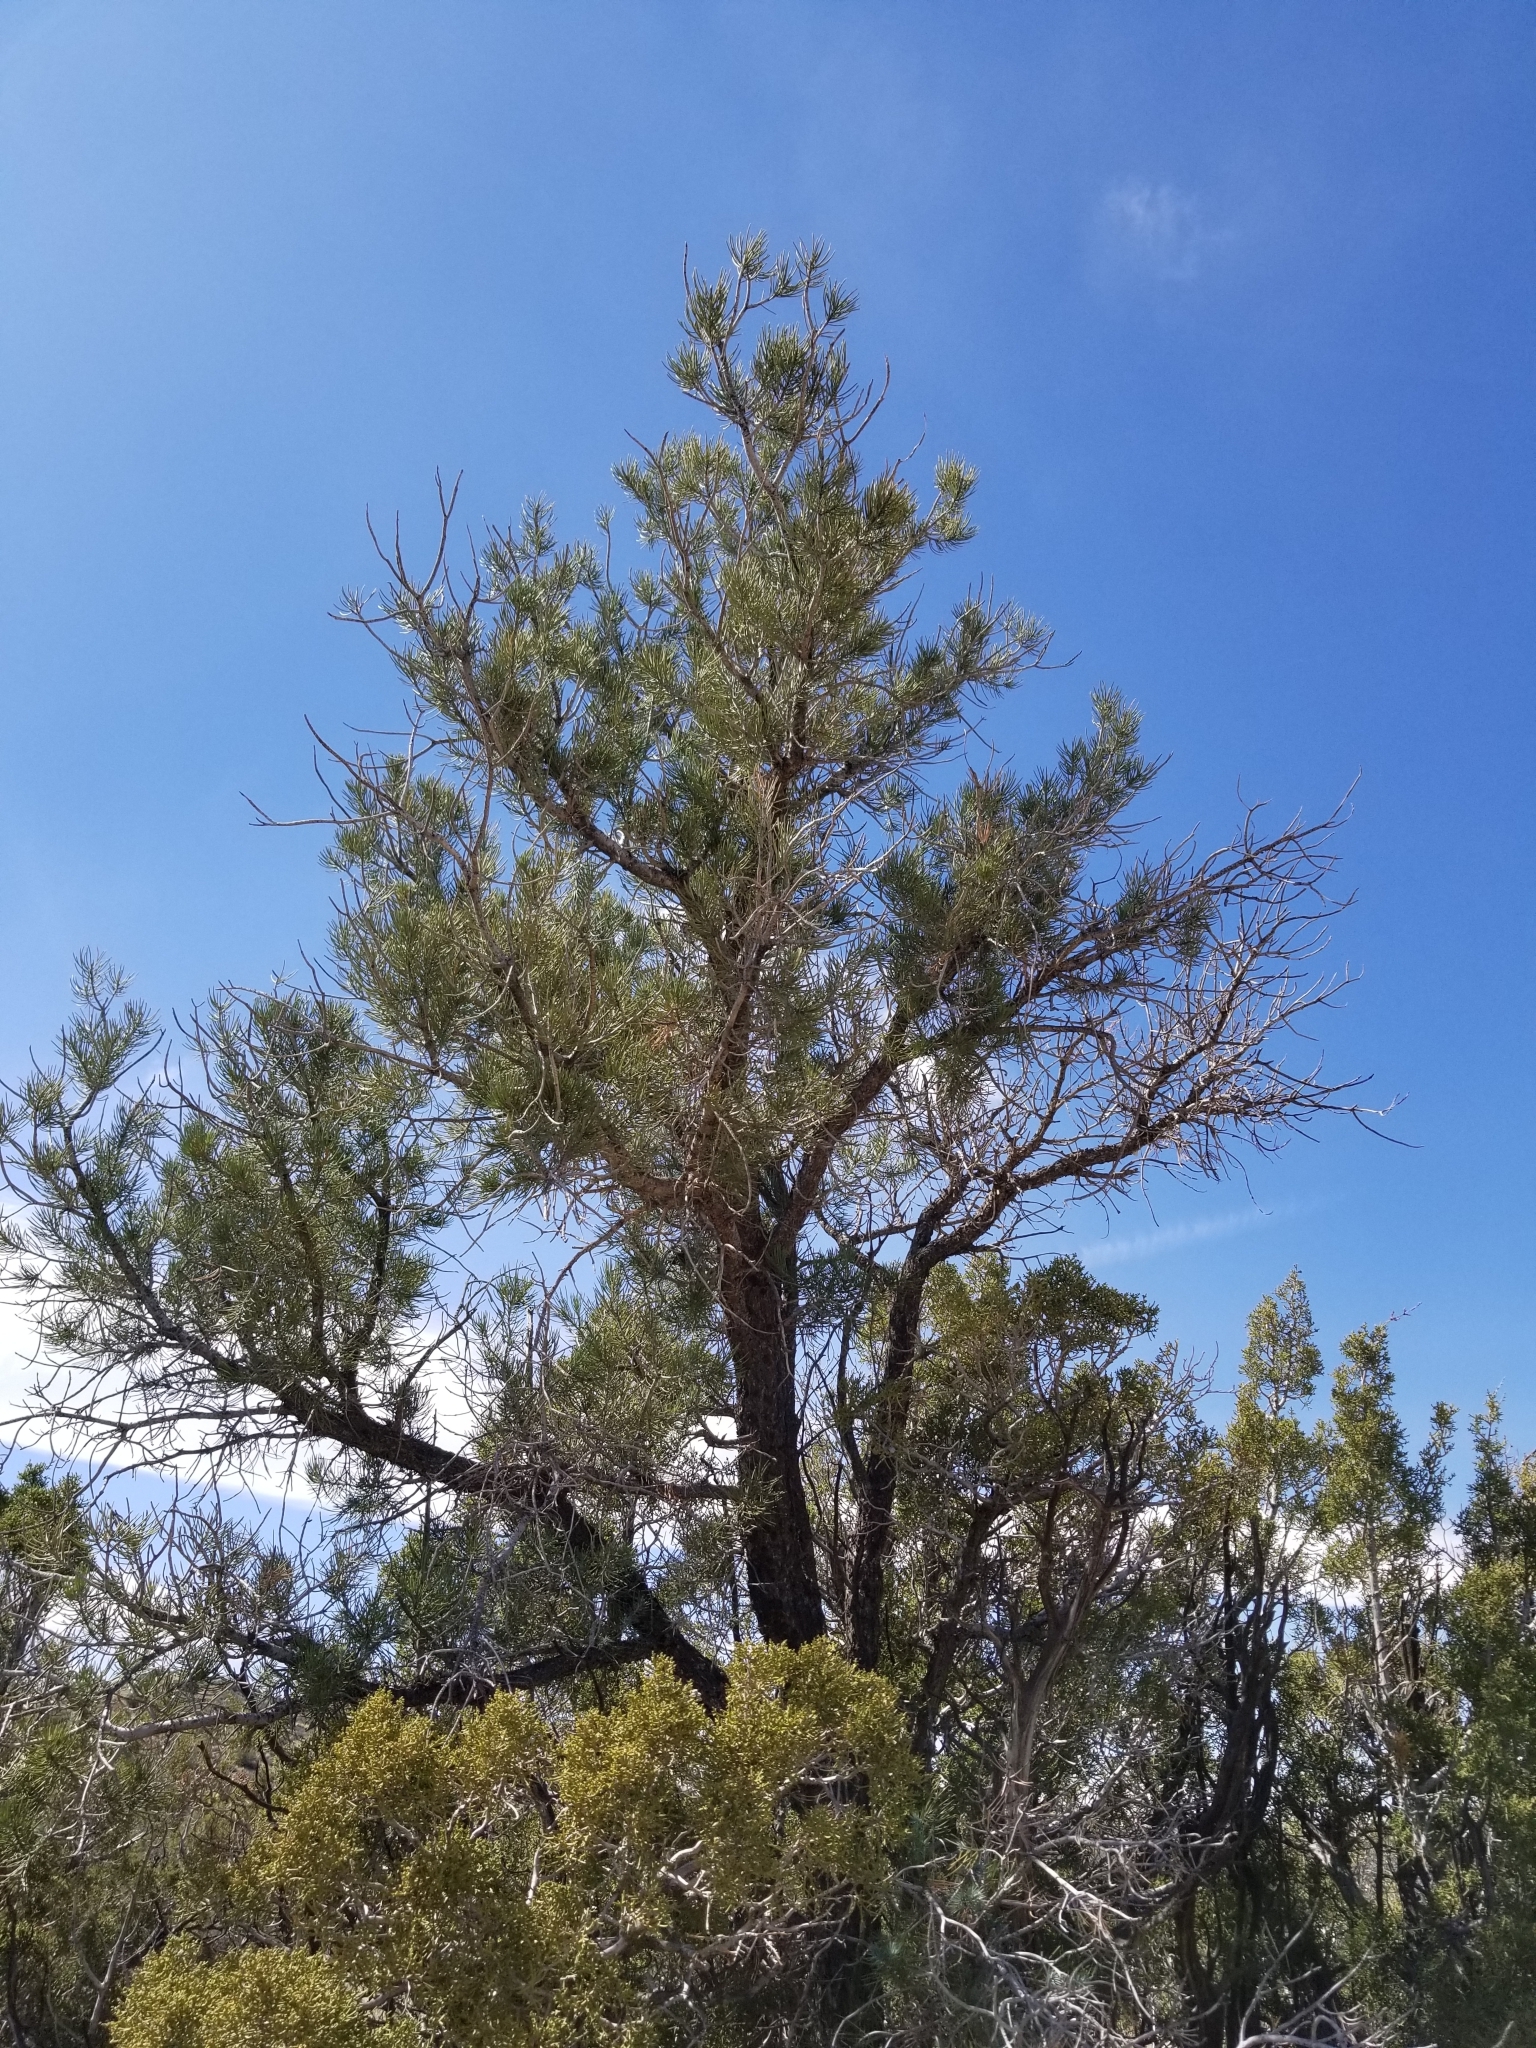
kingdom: Plantae
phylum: Tracheophyta
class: Pinopsida
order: Pinales
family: Pinaceae
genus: Pinus
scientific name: Pinus monophylla
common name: One-leaved nut pine
